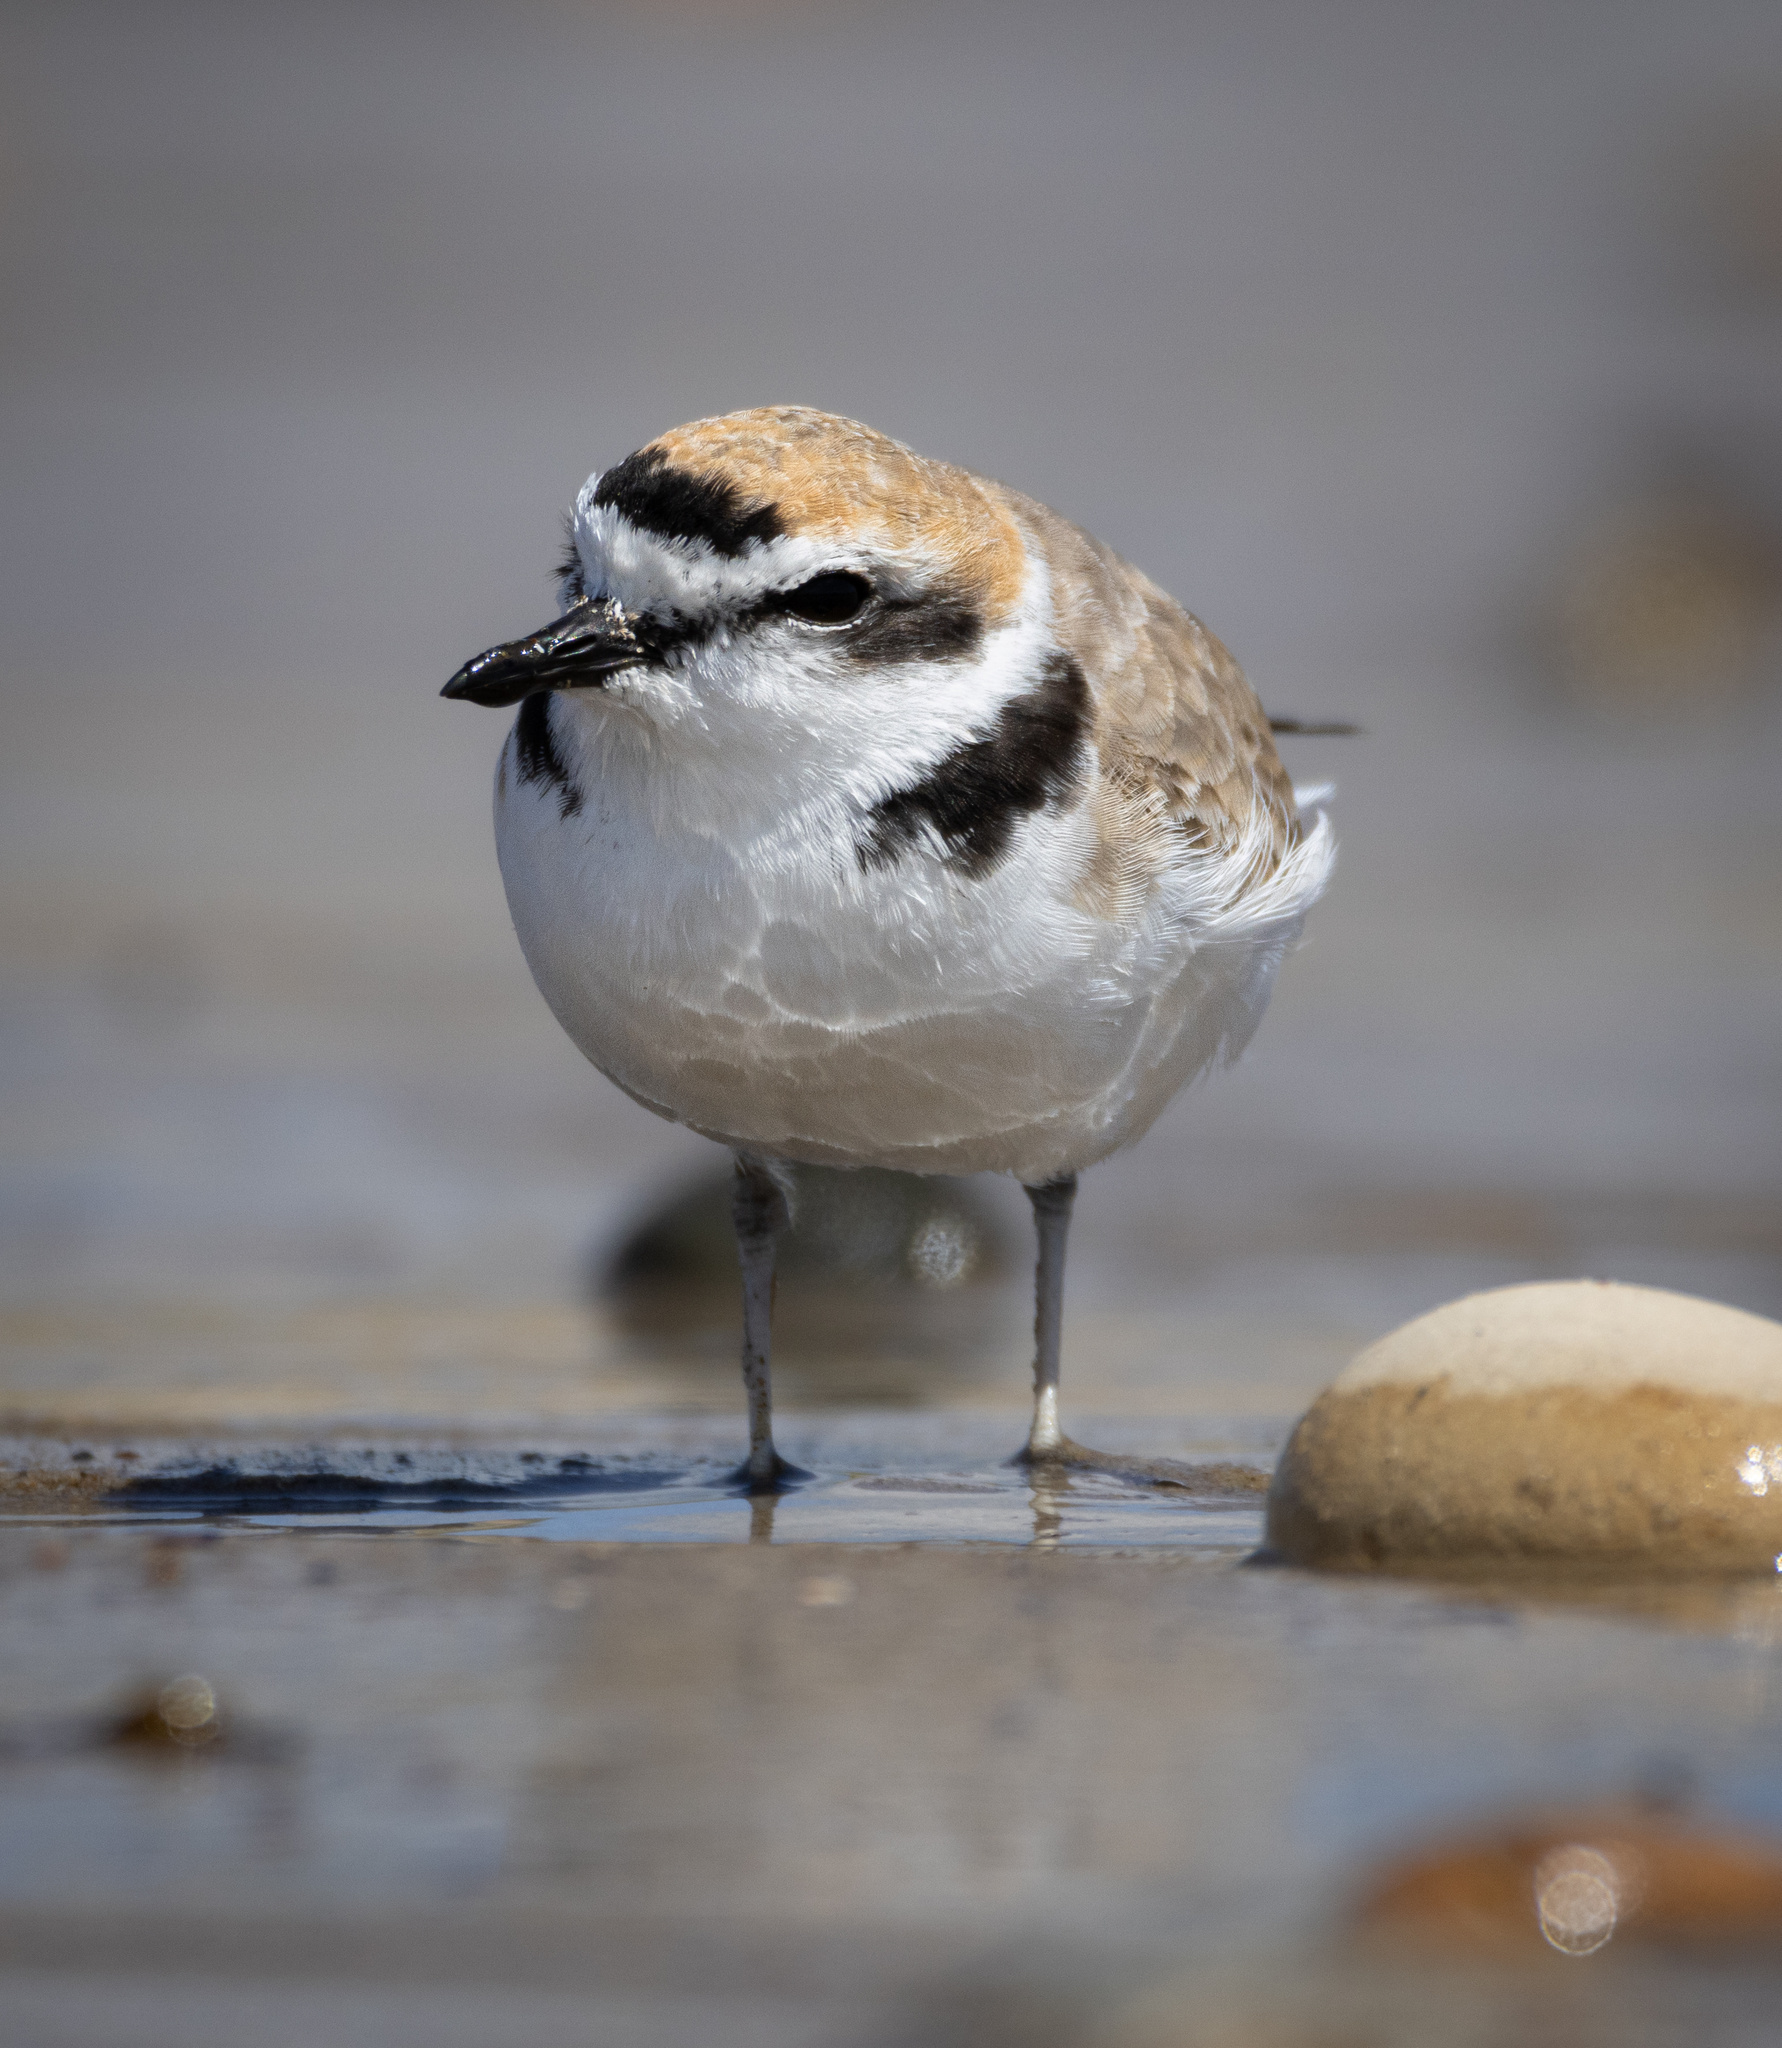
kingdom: Animalia
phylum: Chordata
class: Aves
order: Charadriiformes
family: Charadriidae
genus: Anarhynchus
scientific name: Anarhynchus
